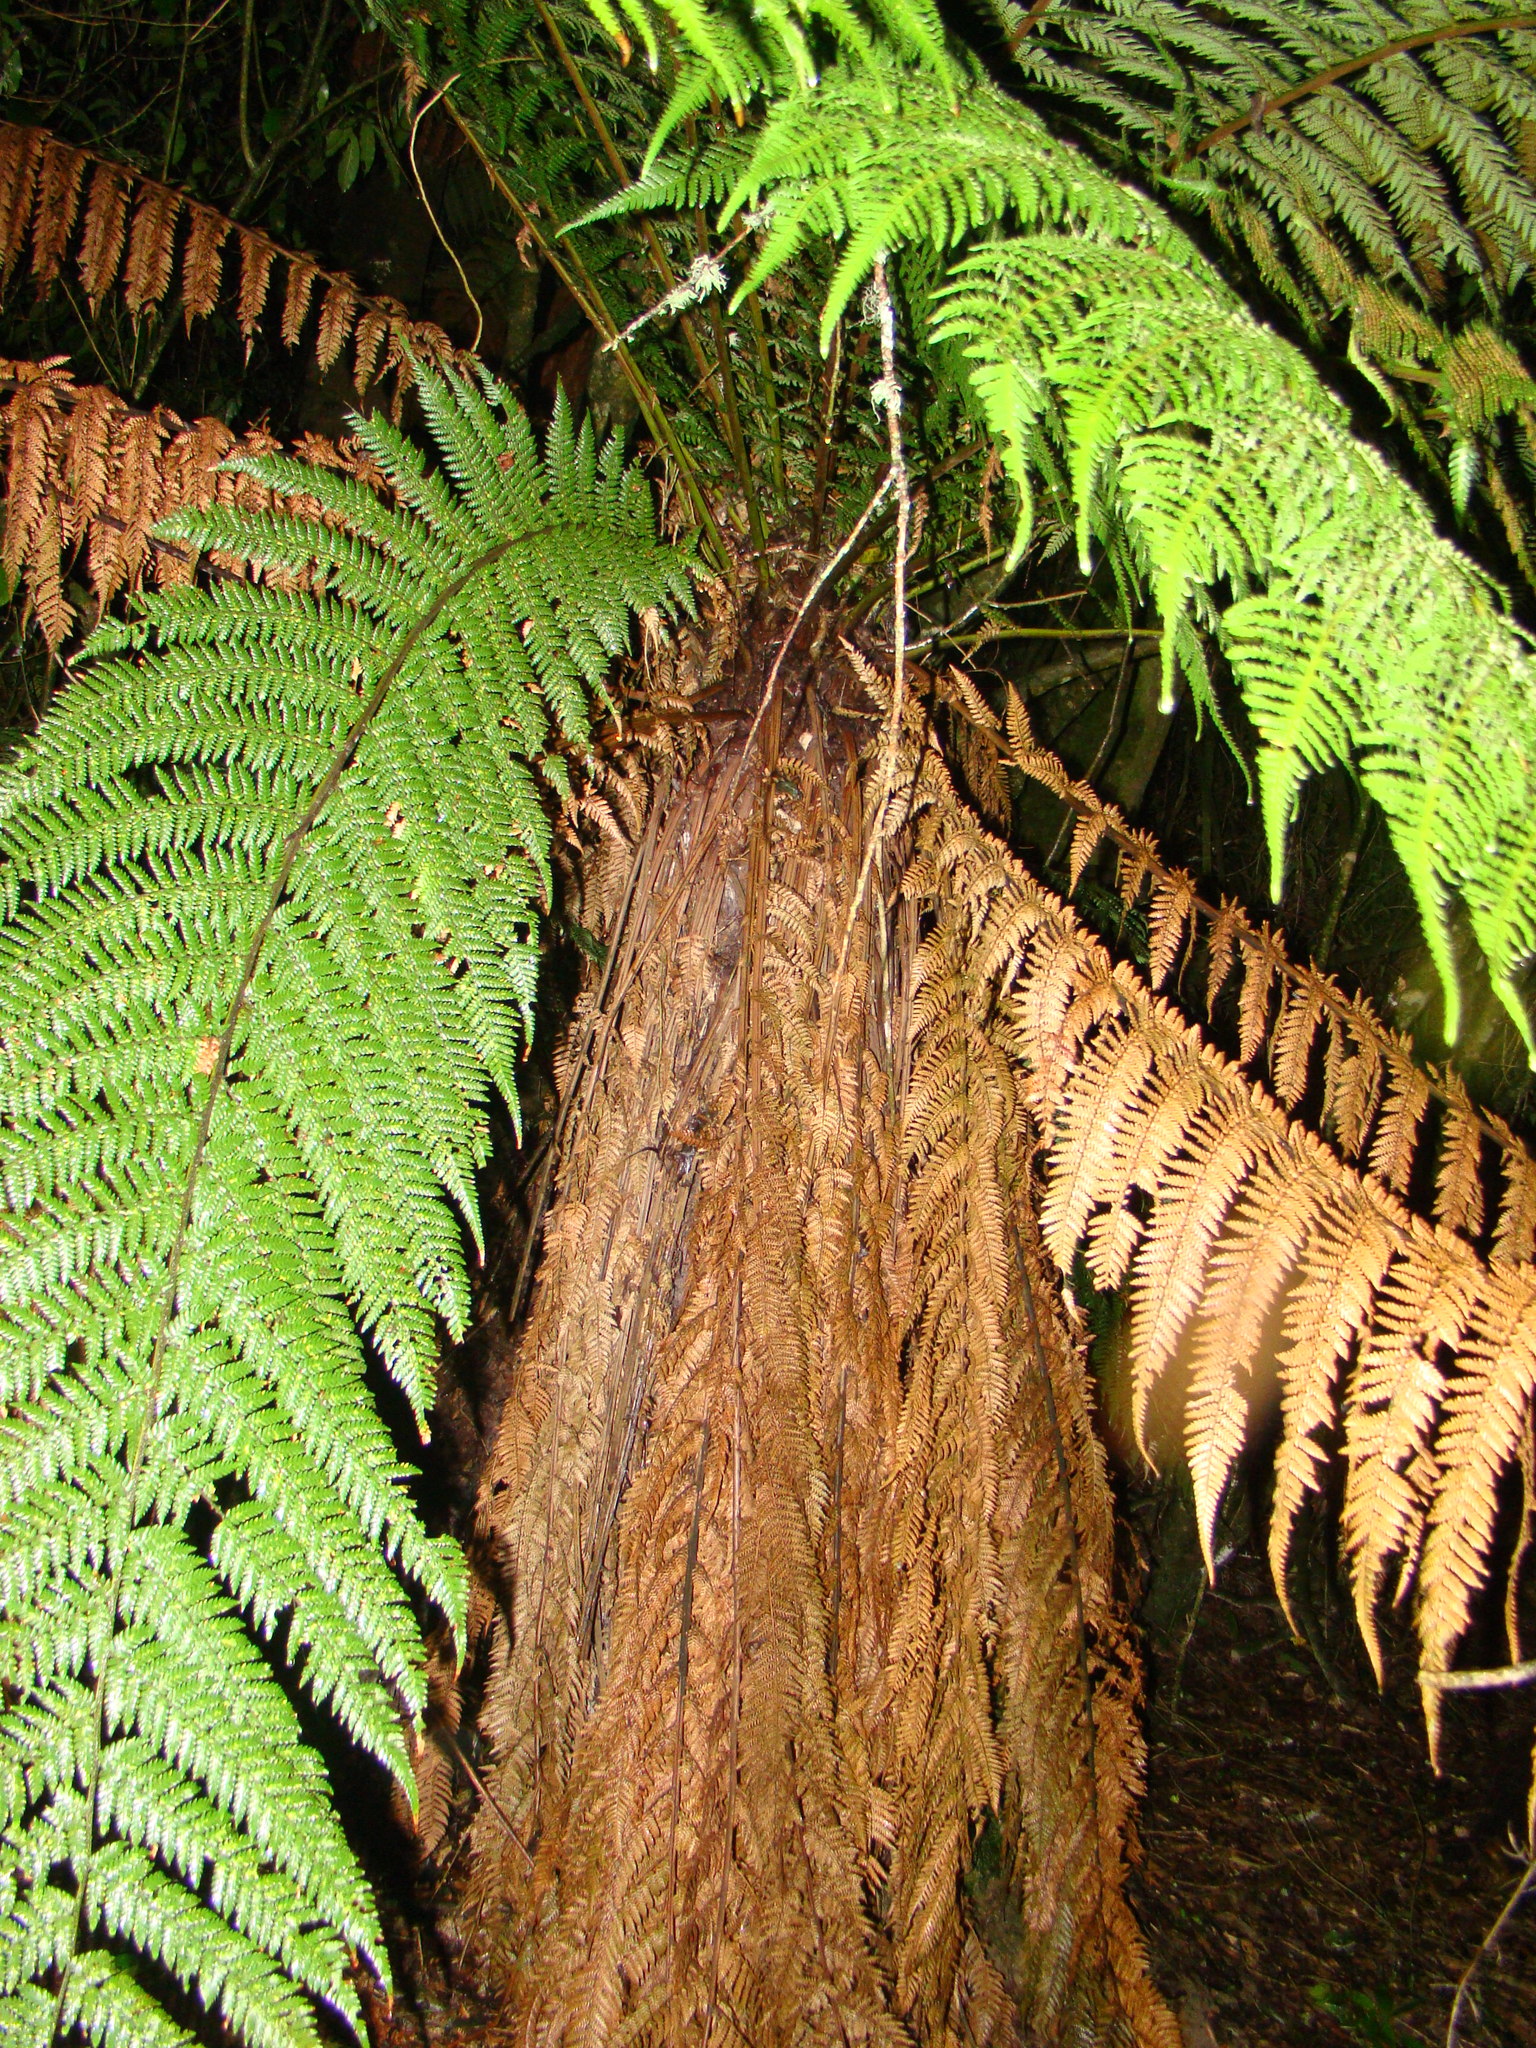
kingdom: Plantae
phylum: Tracheophyta
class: Polypodiopsida
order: Cyatheales
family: Dicksoniaceae
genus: Dicksonia
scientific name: Dicksonia fibrosa
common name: Golden tree fern
